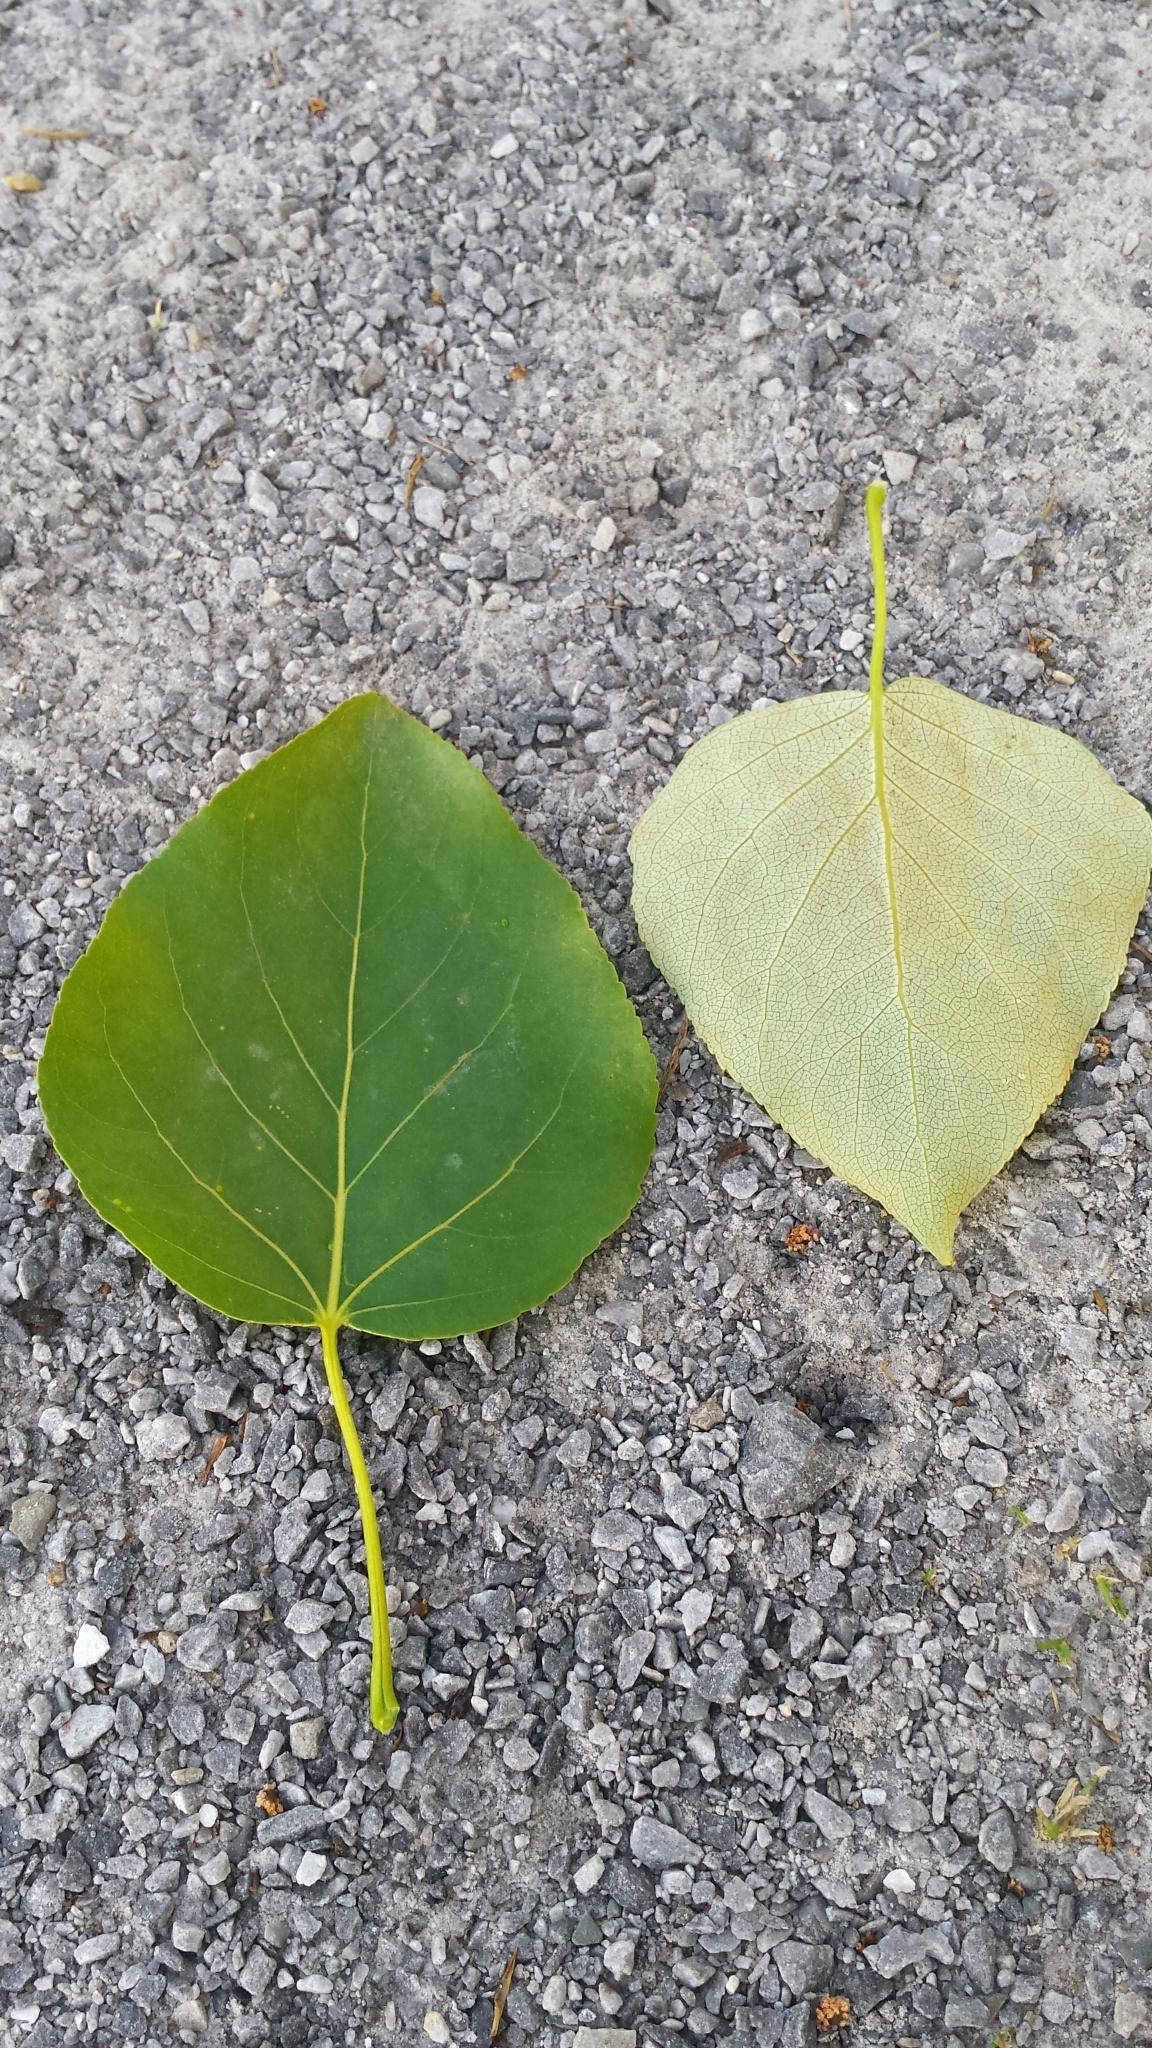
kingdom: Plantae
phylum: Tracheophyta
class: Magnoliopsida
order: Malpighiales
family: Salicaceae
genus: Populus
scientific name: Populus balsamifera
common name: Balsam poplar
